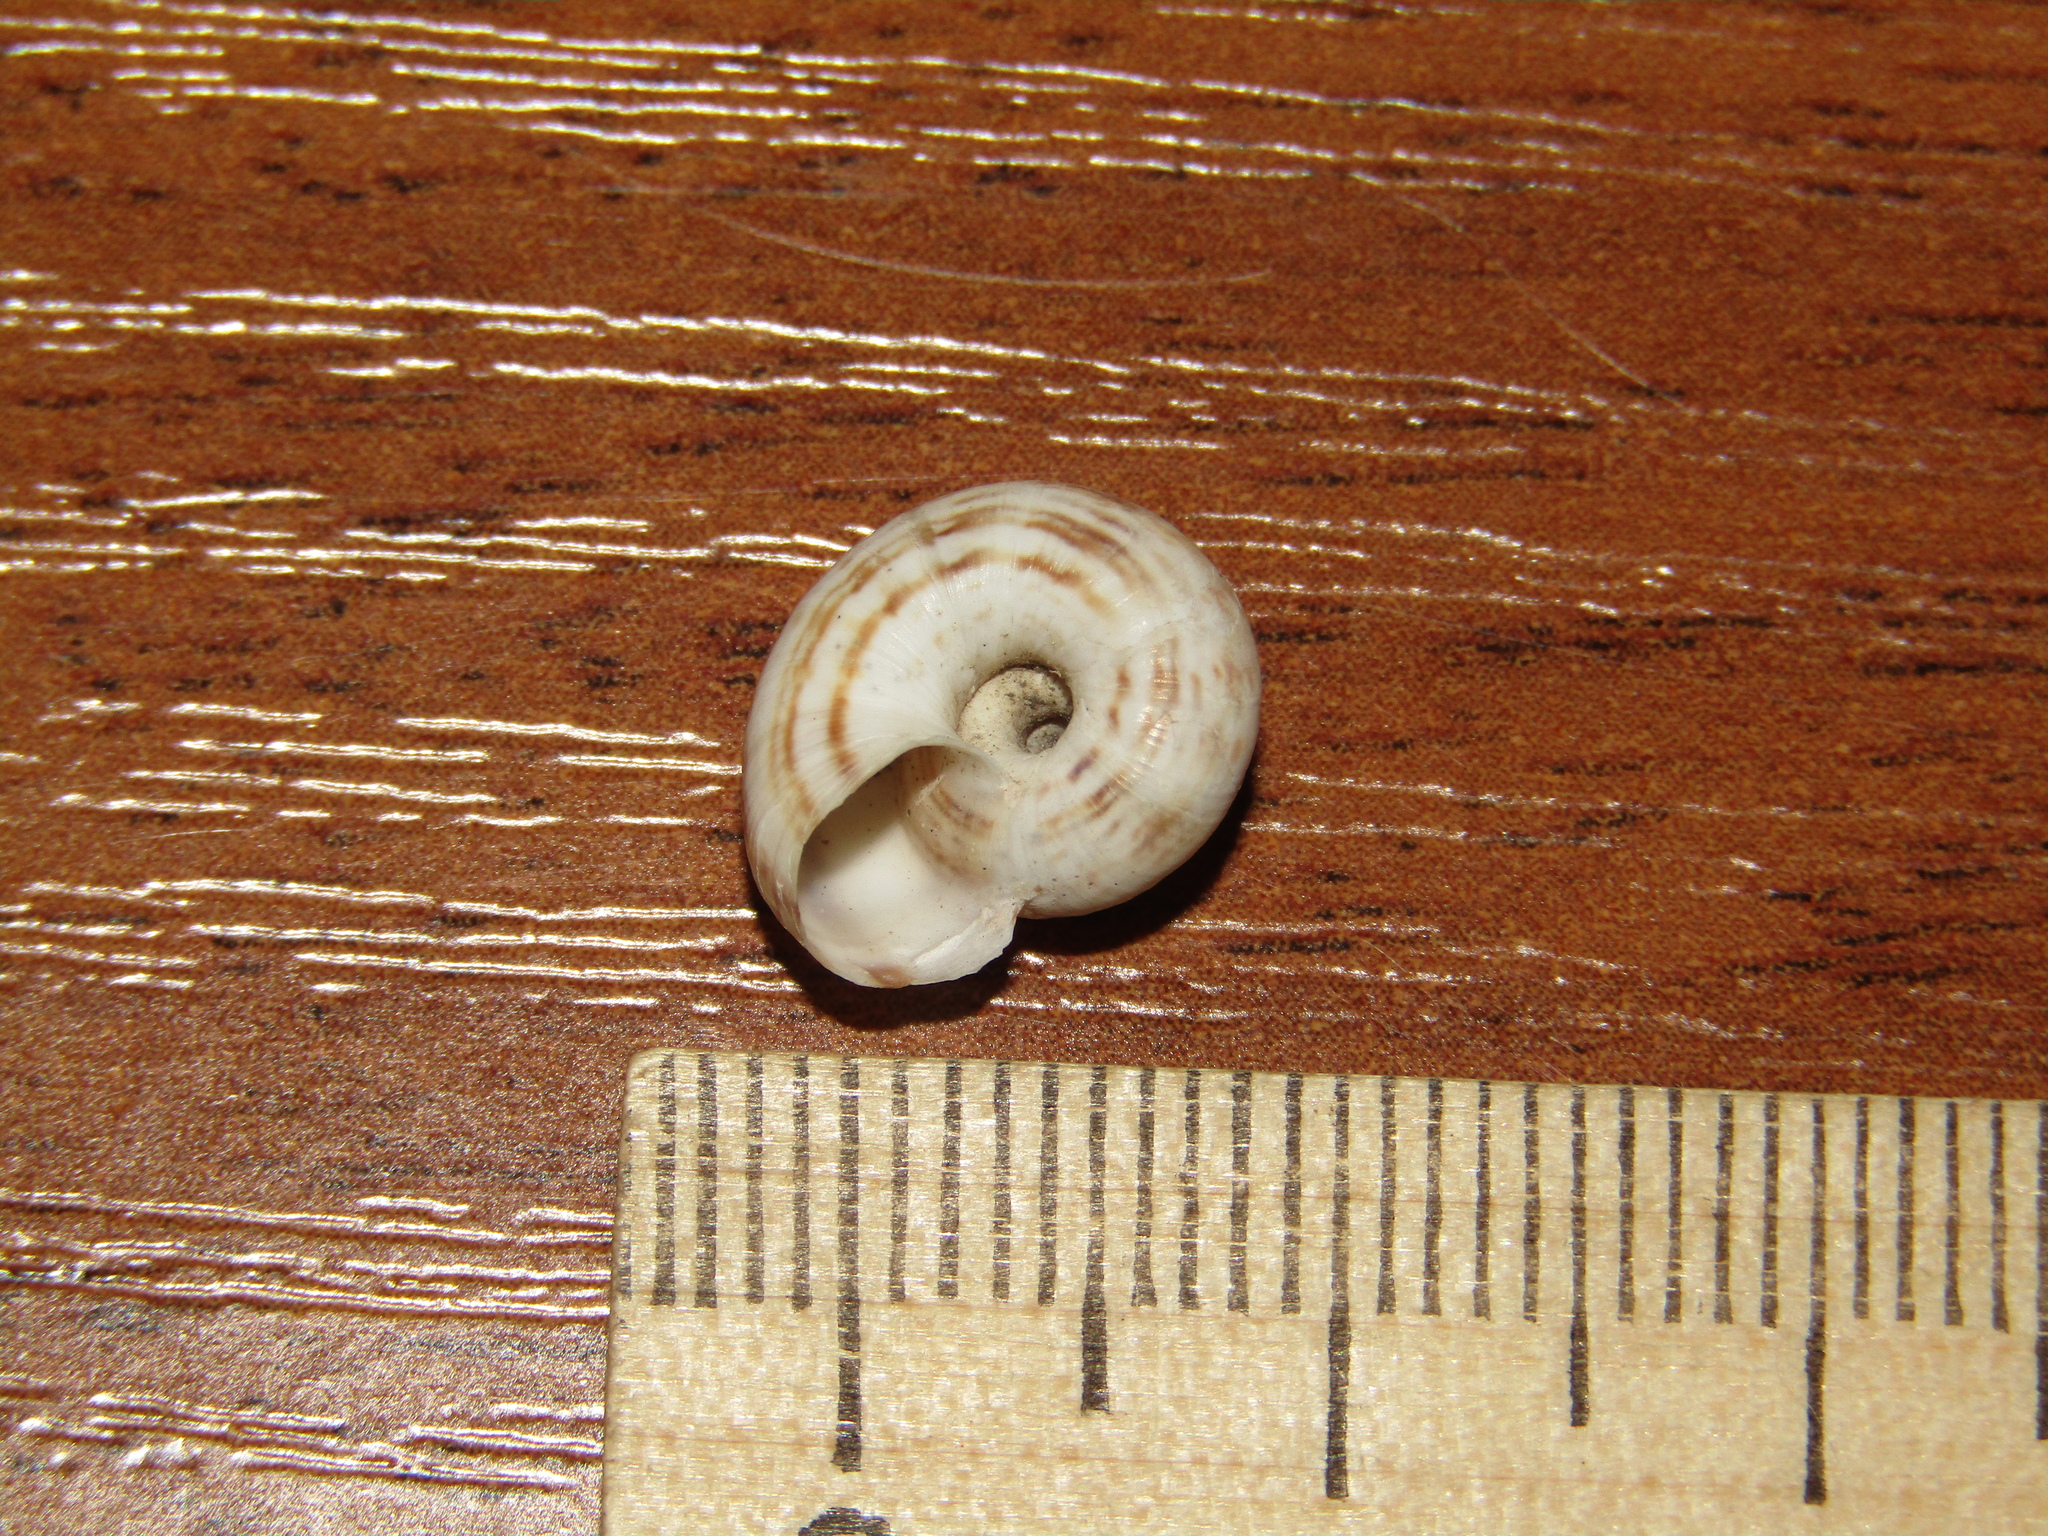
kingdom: Animalia
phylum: Mollusca
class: Gastropoda
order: Stylommatophora
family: Geomitridae
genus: Xeropicta
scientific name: Xeropicta derbentina
